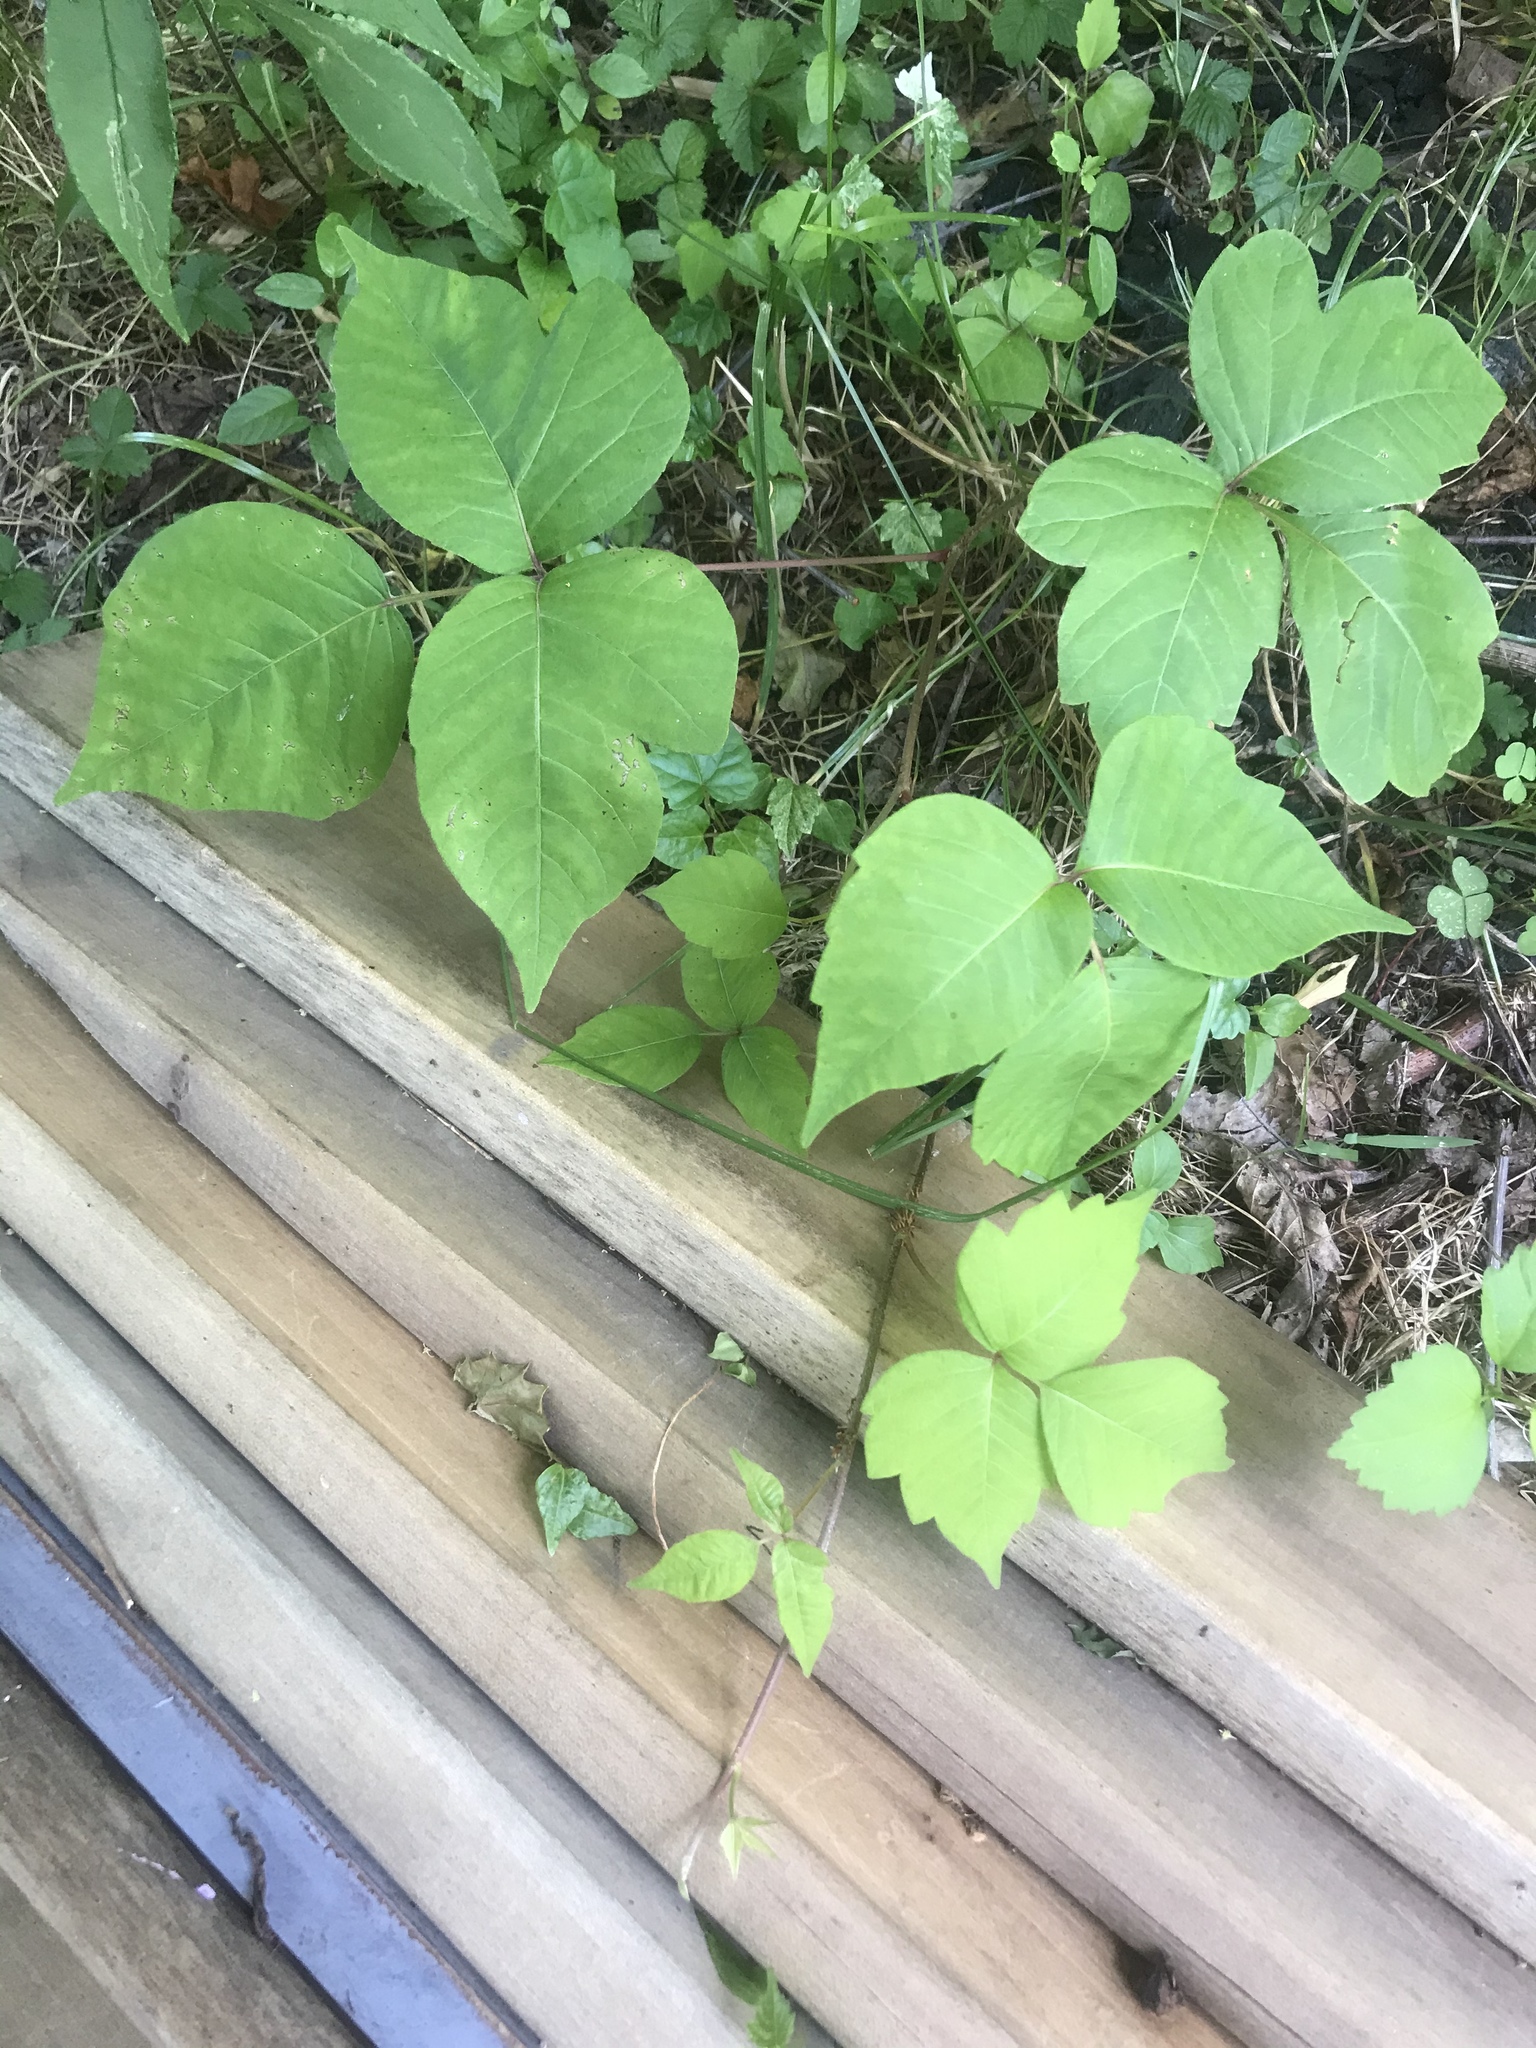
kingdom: Plantae
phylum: Tracheophyta
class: Magnoliopsida
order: Sapindales
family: Anacardiaceae
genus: Toxicodendron
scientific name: Toxicodendron radicans
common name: Poison ivy
